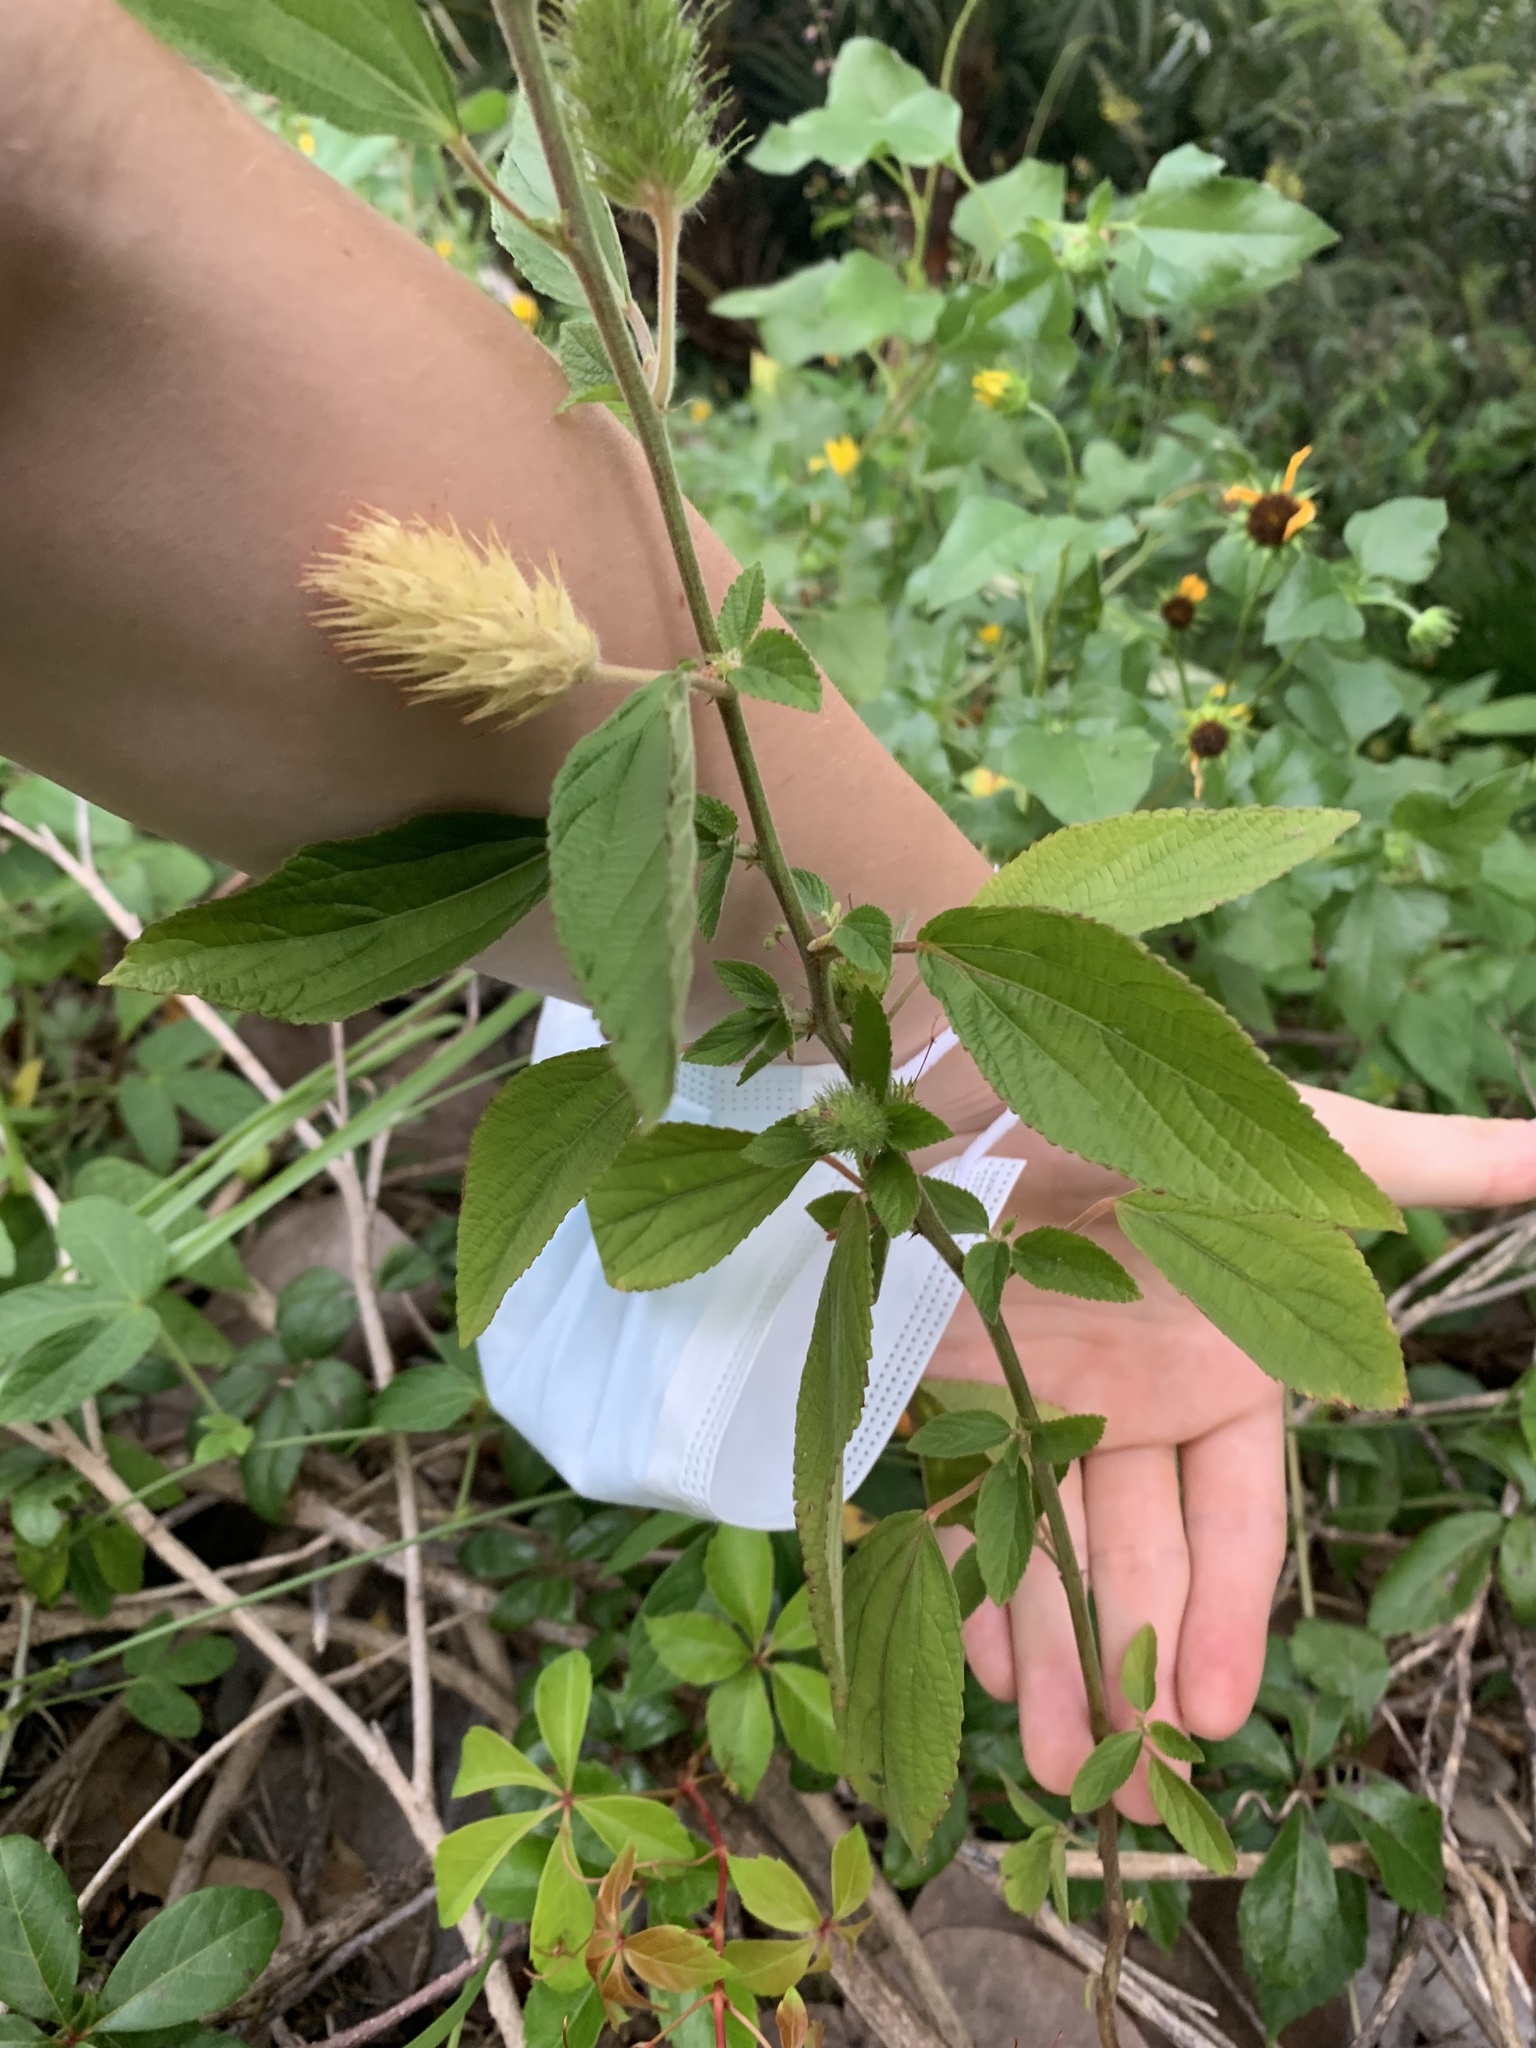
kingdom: Plantae
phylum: Tracheophyta
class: Magnoliopsida
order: Malpighiales
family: Euphorbiaceae
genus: Acalypha
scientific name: Acalypha arvensis
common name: Field copperleaf
